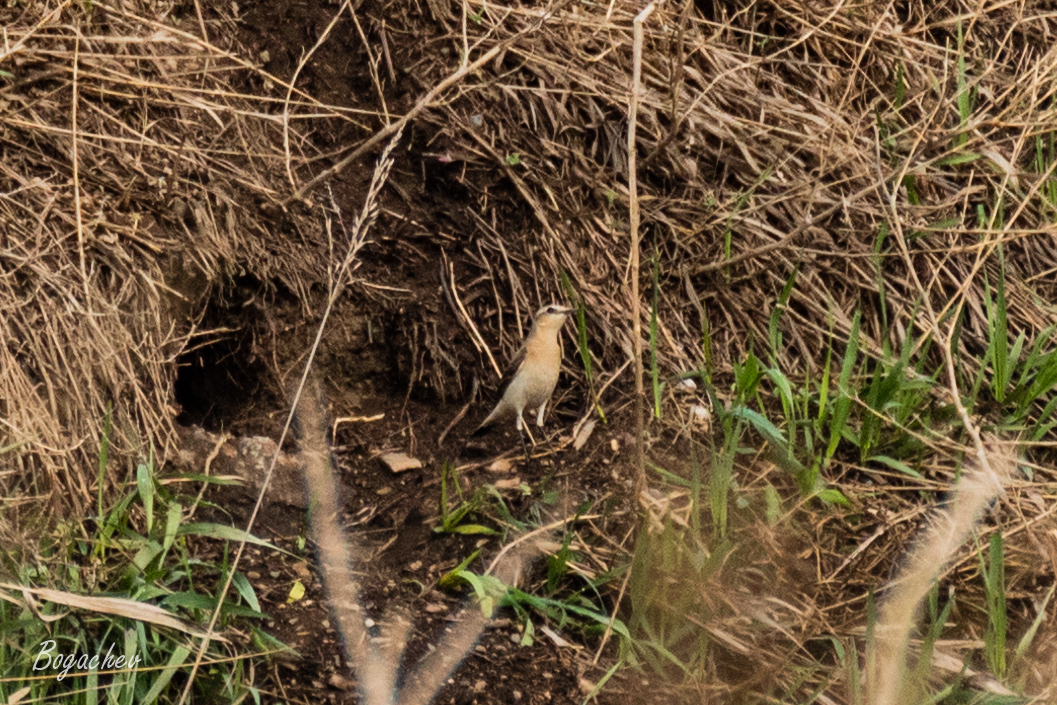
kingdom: Animalia
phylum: Chordata
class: Aves
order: Passeriformes
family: Muscicapidae
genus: Oenanthe
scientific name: Oenanthe oenanthe
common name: Northern wheatear
